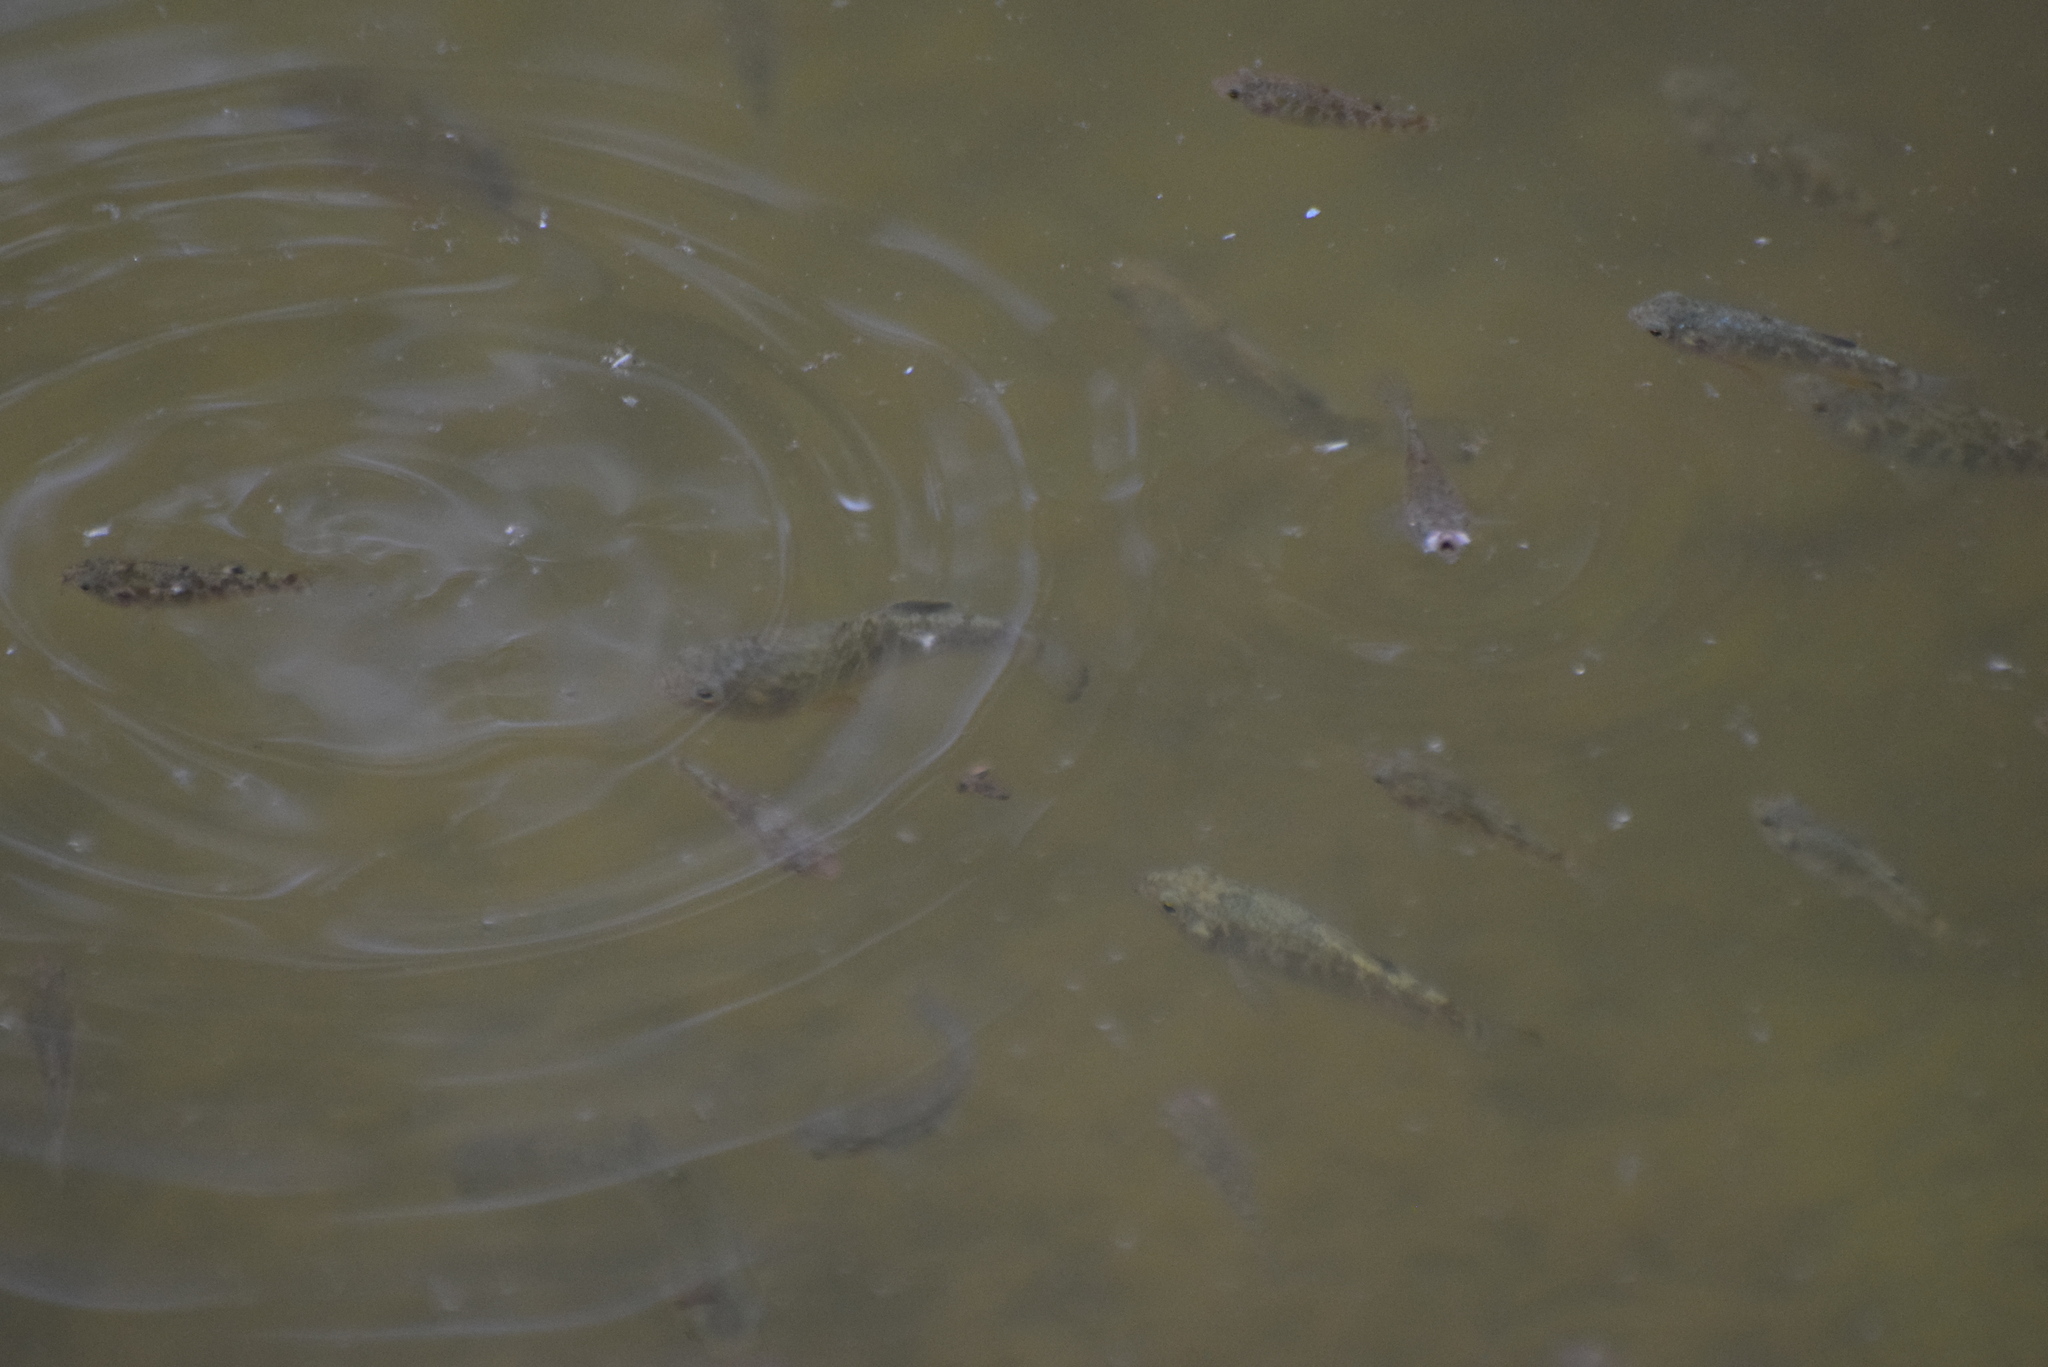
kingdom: Animalia
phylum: Chordata
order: Cyprinodontiformes
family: Cyprinodontidae
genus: Cyprinodon
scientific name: Cyprinodon variegatus
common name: Sheepshead minnow
